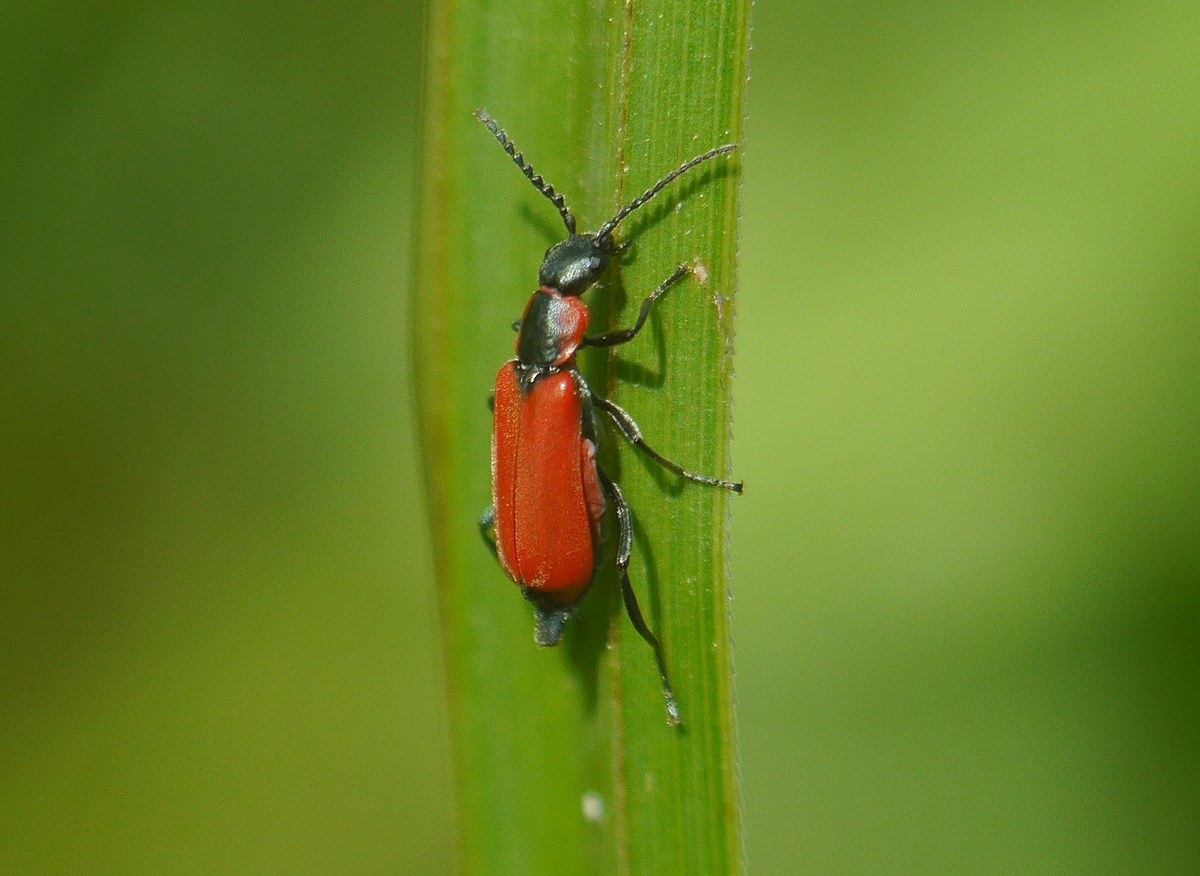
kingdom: Animalia
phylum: Arthropoda
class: Insecta
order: Coleoptera
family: Melyridae
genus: Anthocomus
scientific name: Anthocomus rufus
